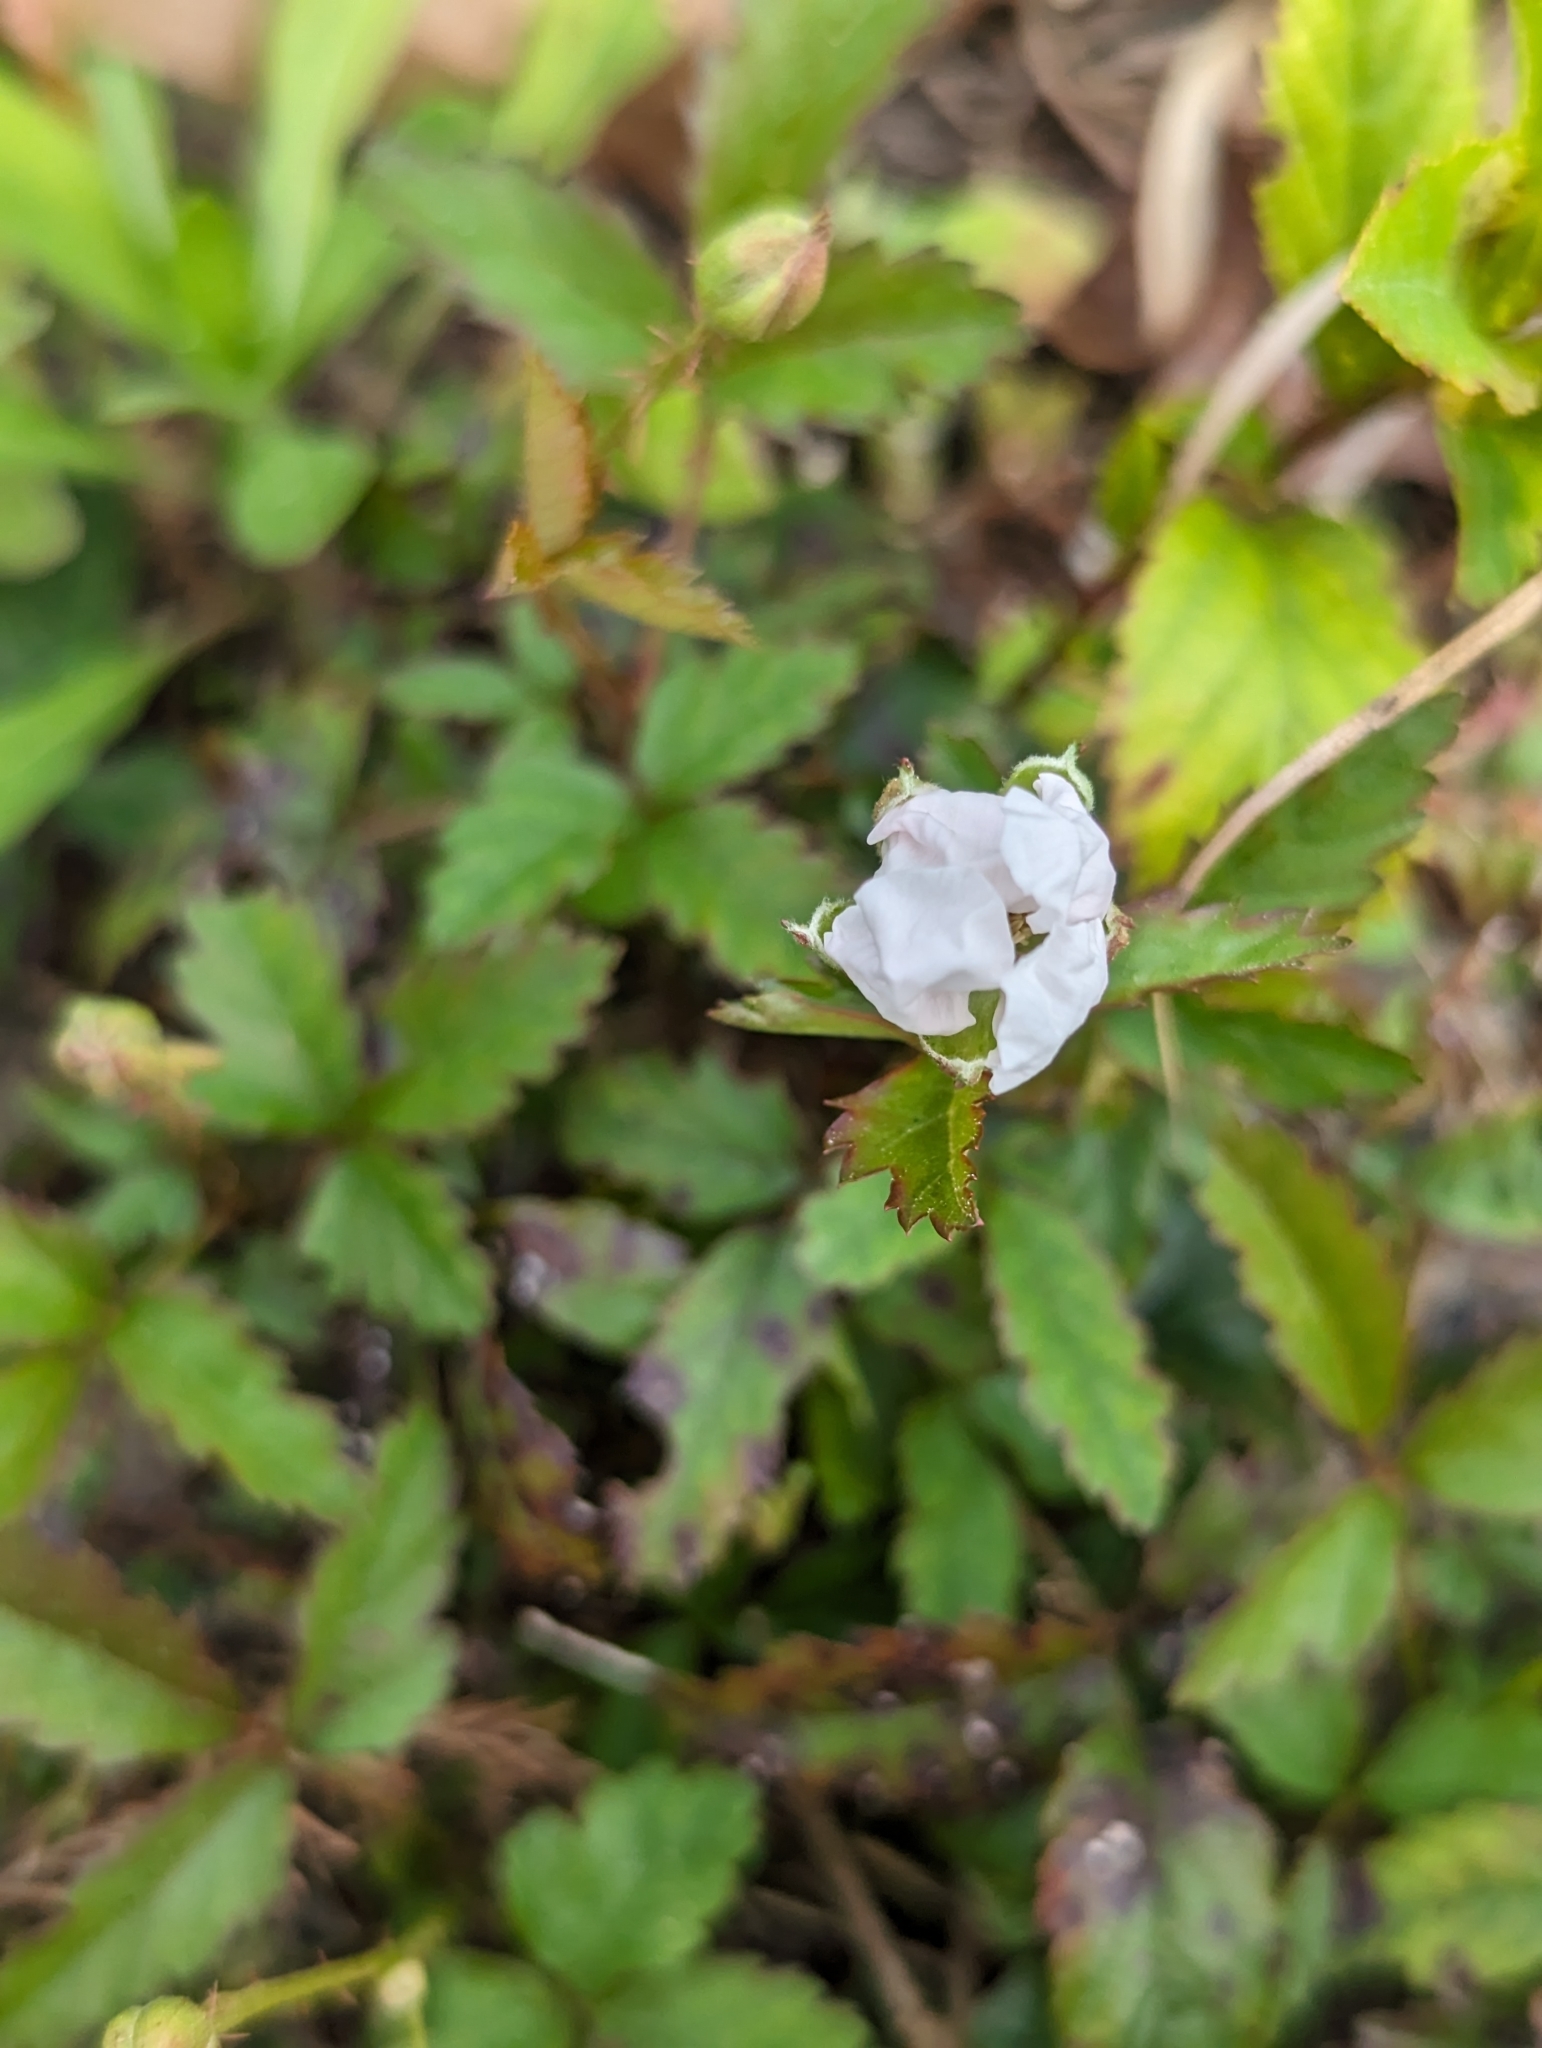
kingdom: Plantae
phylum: Tracheophyta
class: Magnoliopsida
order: Rosales
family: Rosaceae
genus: Rubus
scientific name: Rubus trivialis
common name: Southern dewberry
